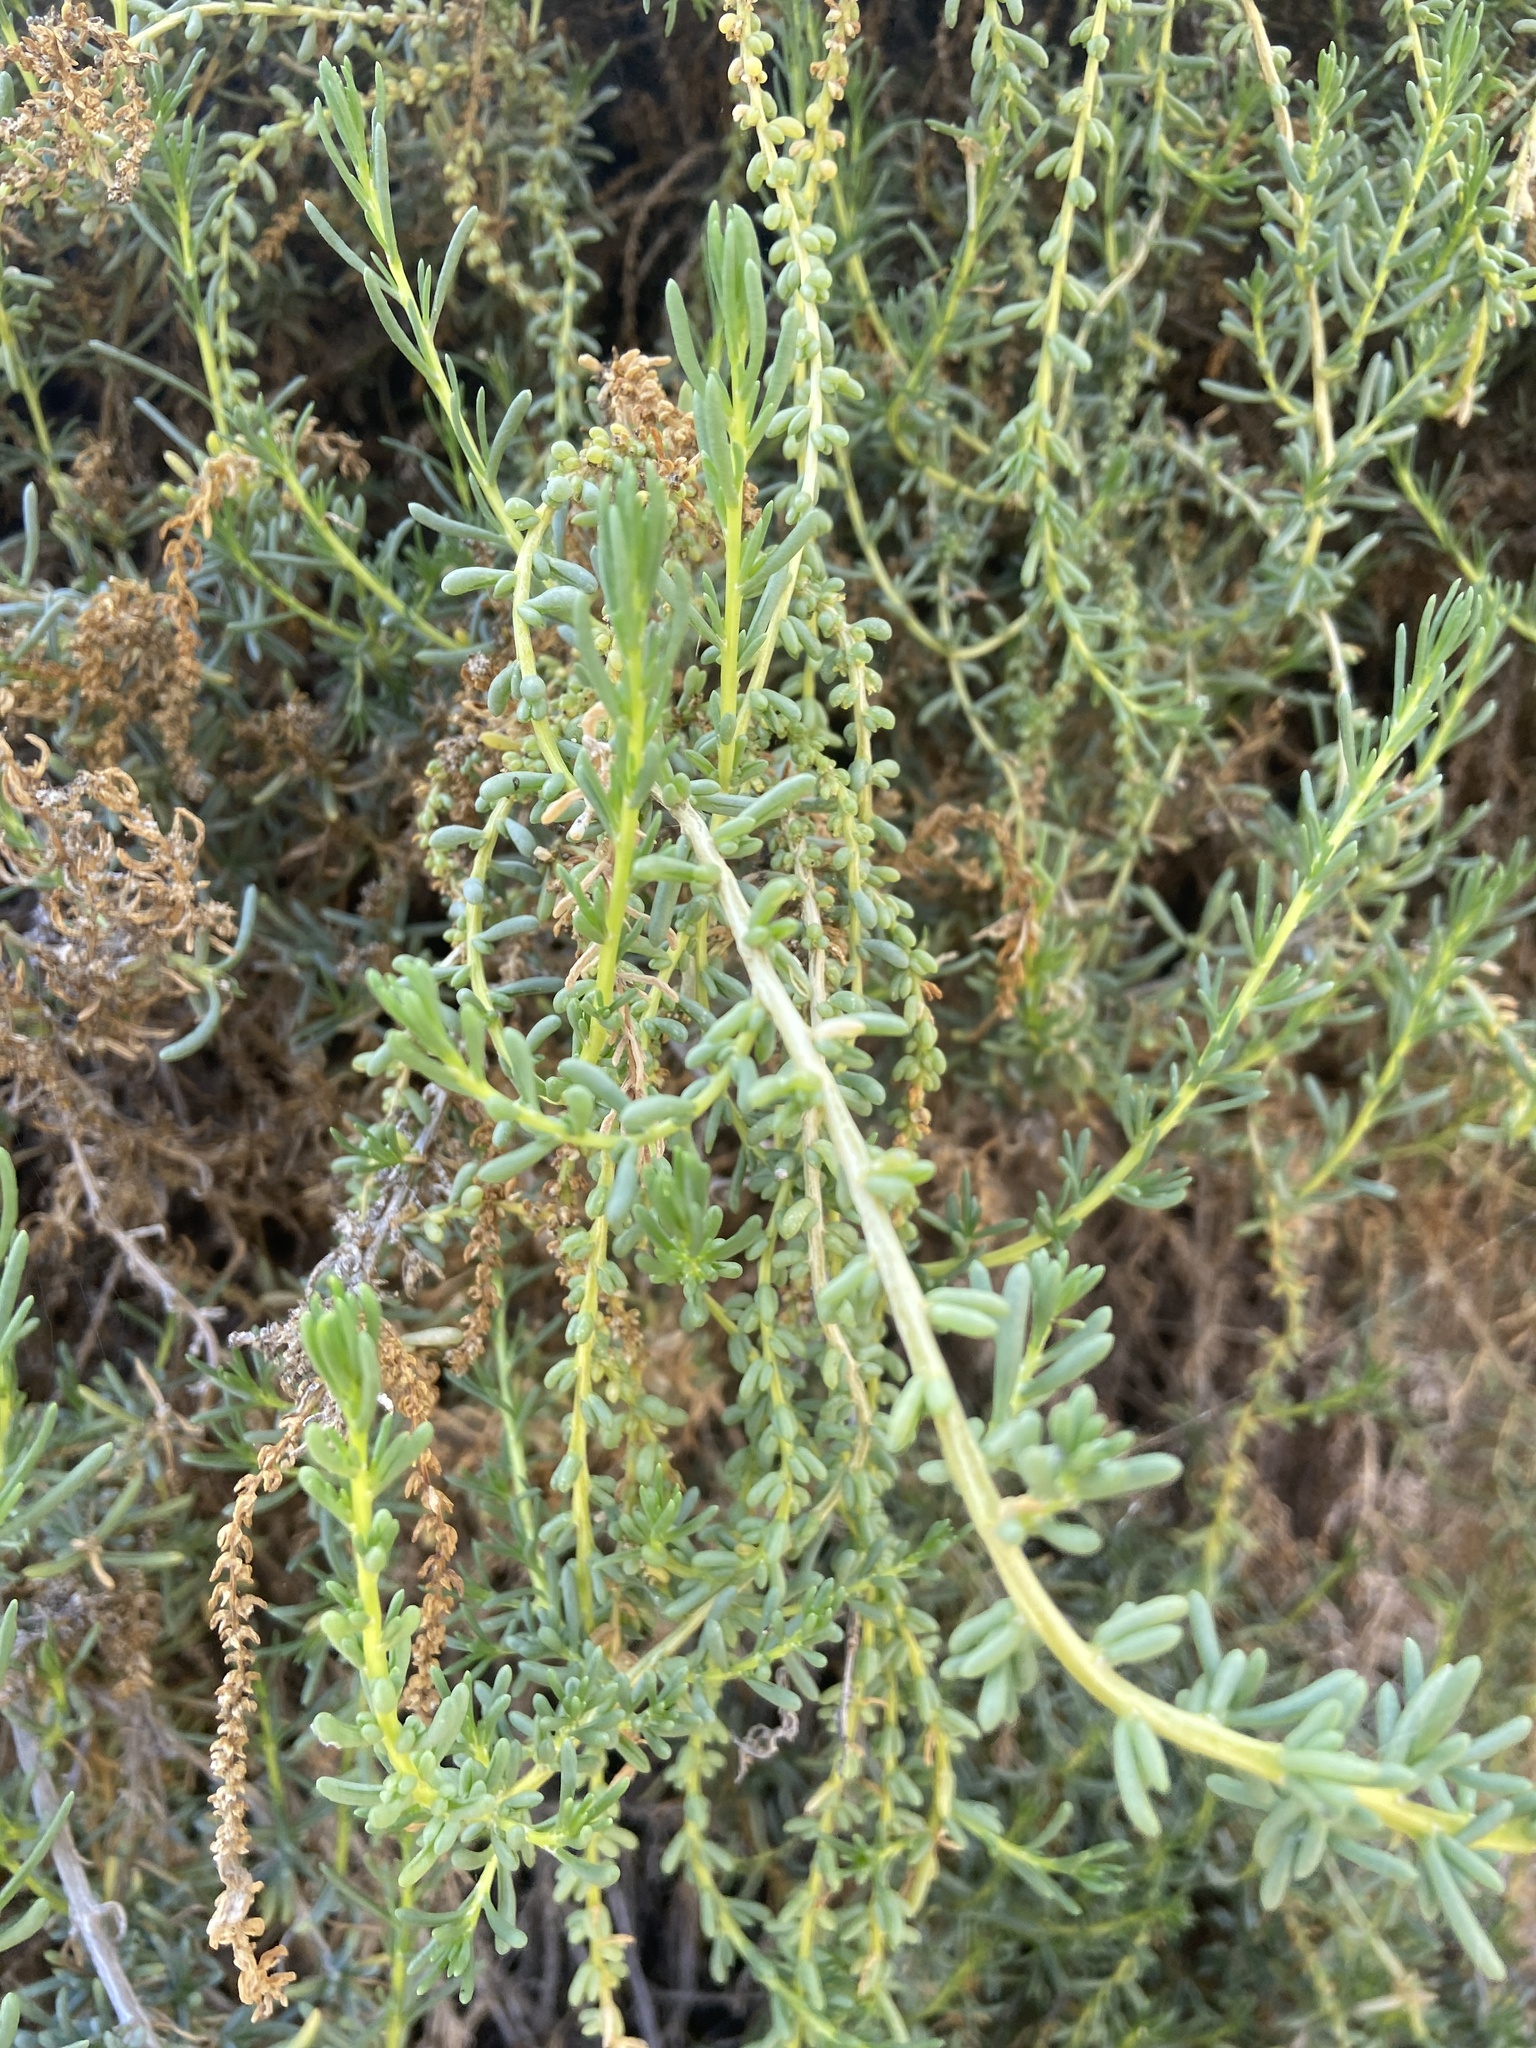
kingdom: Plantae
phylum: Tracheophyta
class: Magnoliopsida
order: Caryophyllales
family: Amaranthaceae
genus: Salsola
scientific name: Salsola melitensis
